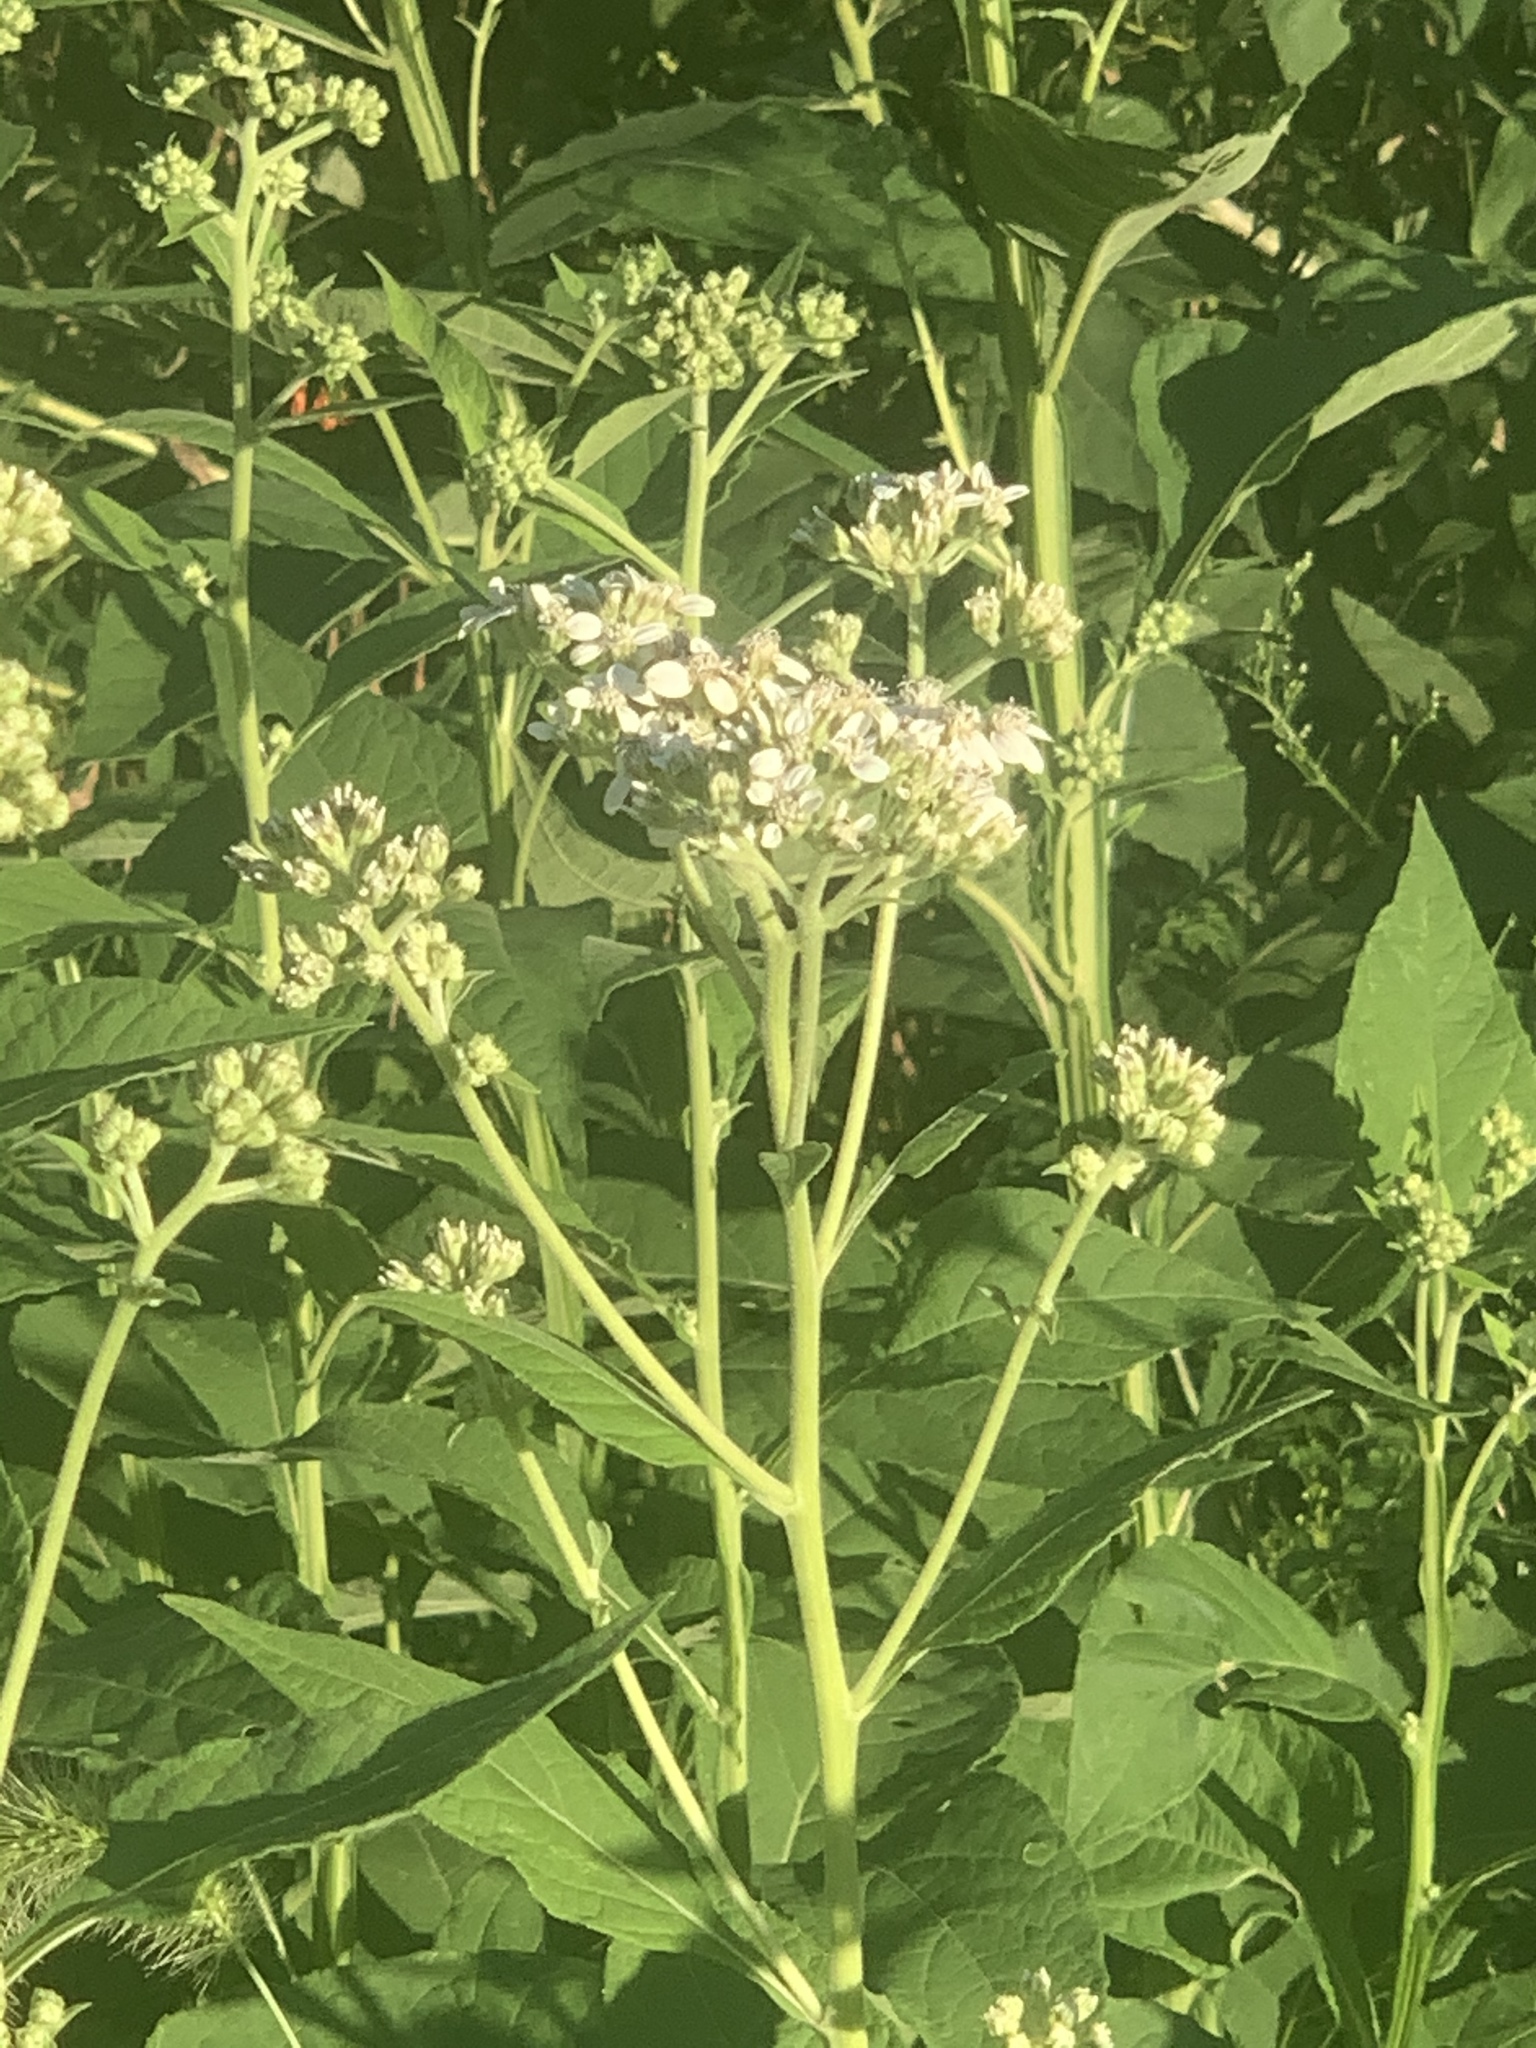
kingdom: Plantae
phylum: Tracheophyta
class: Magnoliopsida
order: Asterales
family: Asteraceae
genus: Verbesina
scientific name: Verbesina virginica
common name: Frostweed
